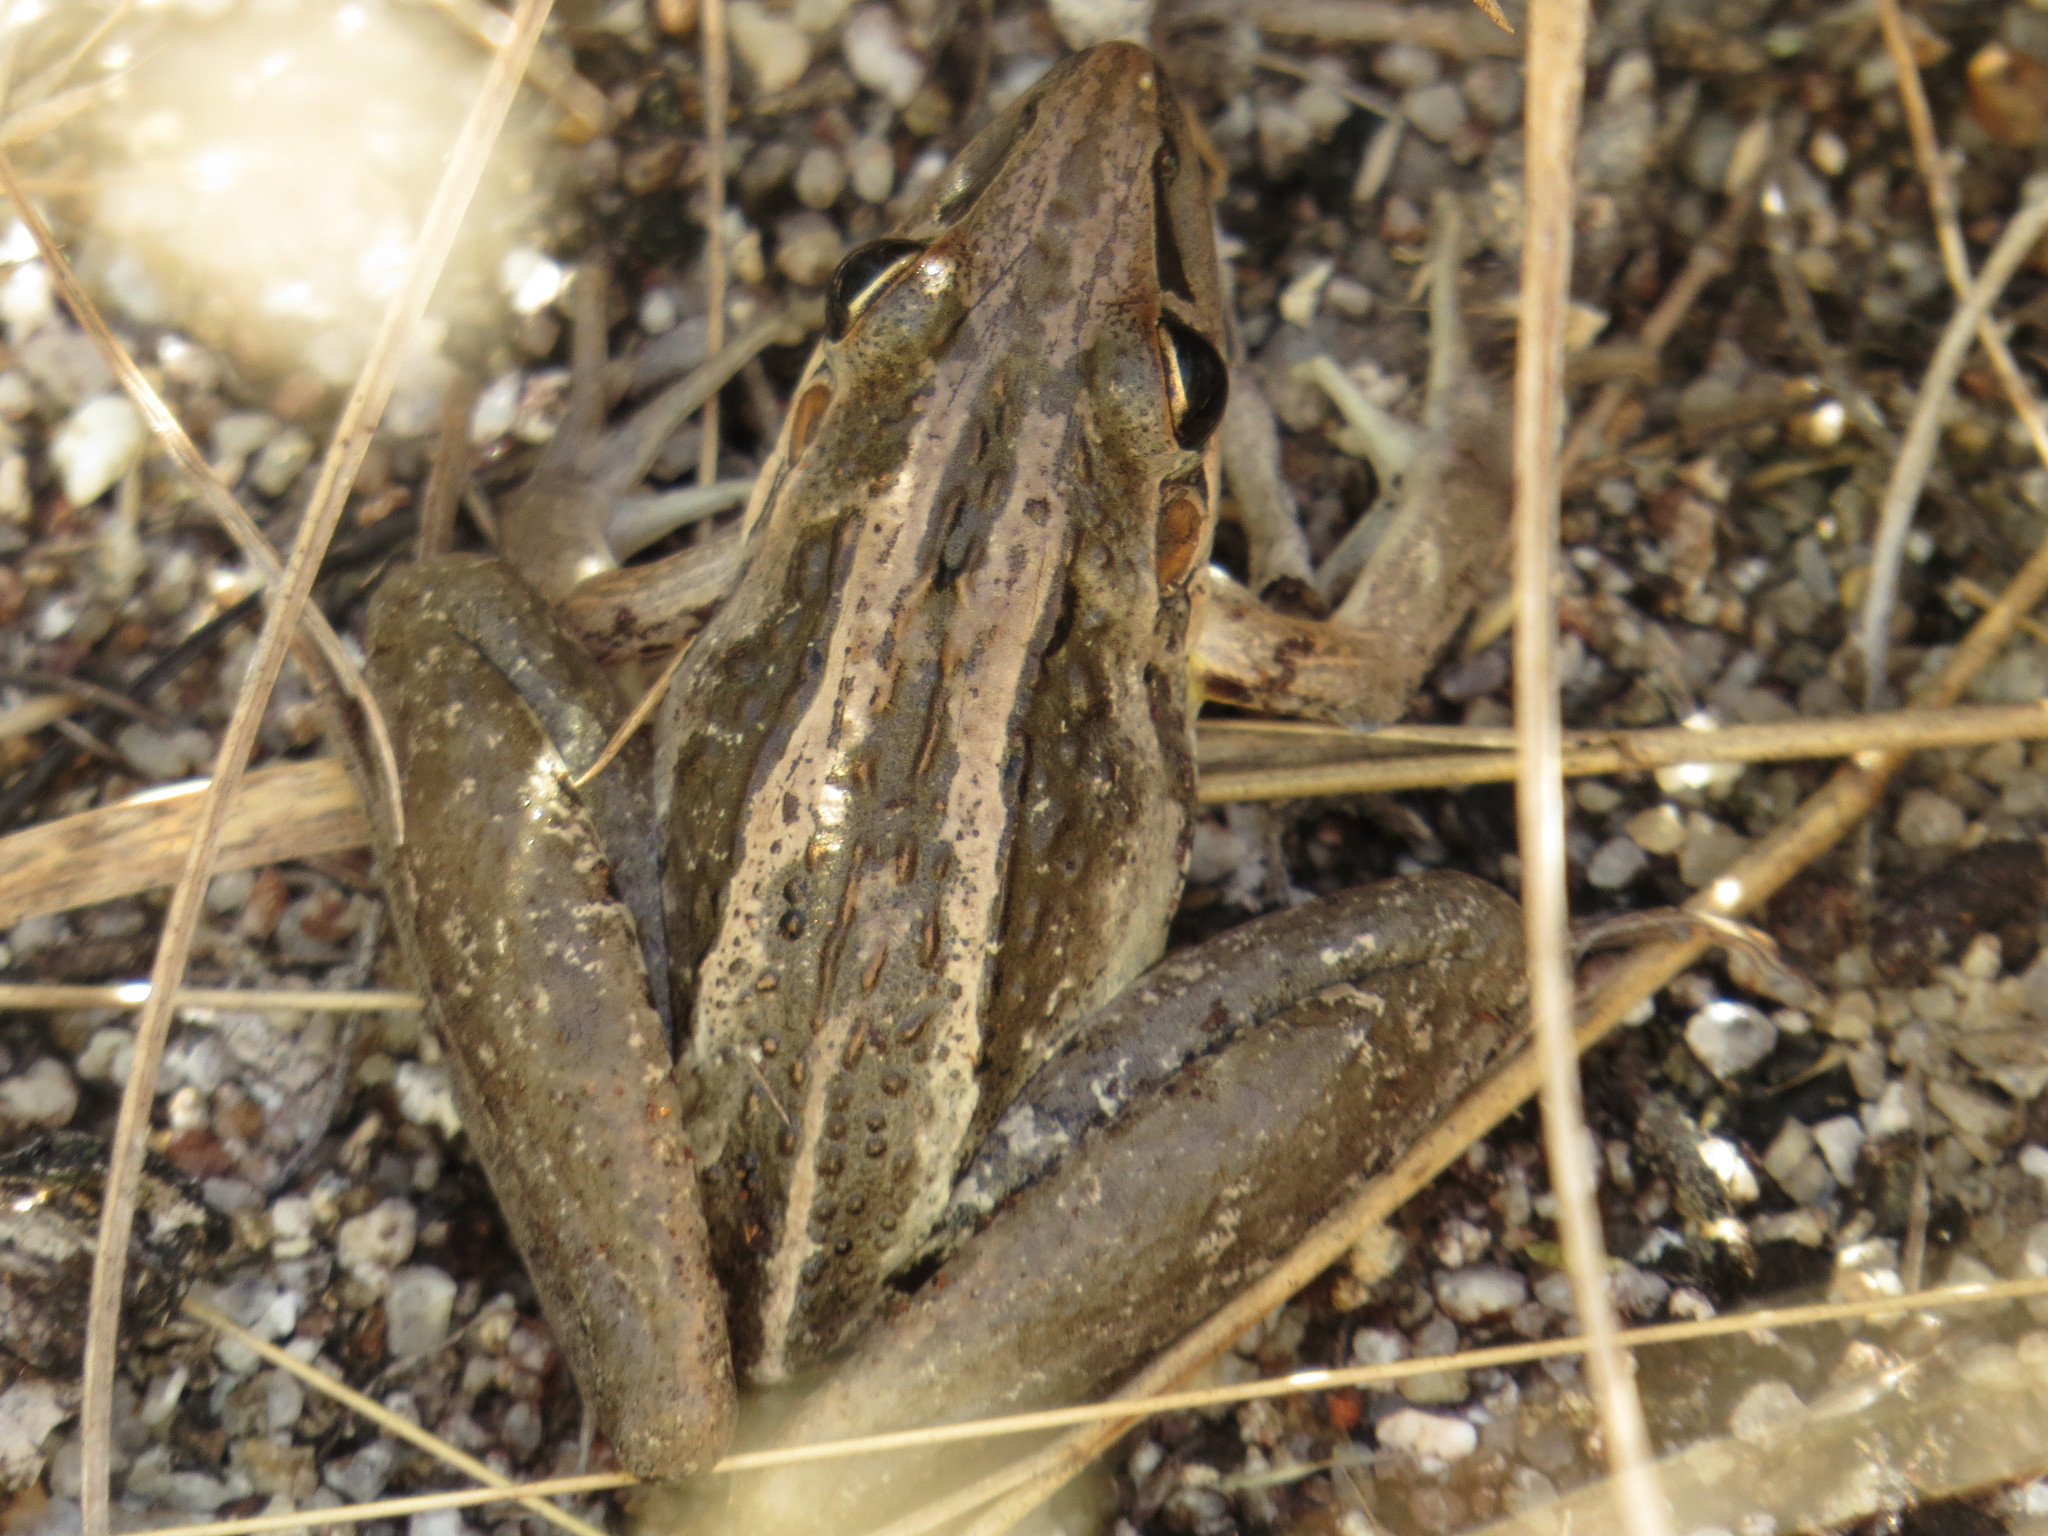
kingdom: Animalia
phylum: Chordata
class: Amphibia
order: Anura
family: Pelodryadidae
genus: Litoria
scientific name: Litoria nasuta
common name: Rocket frog
